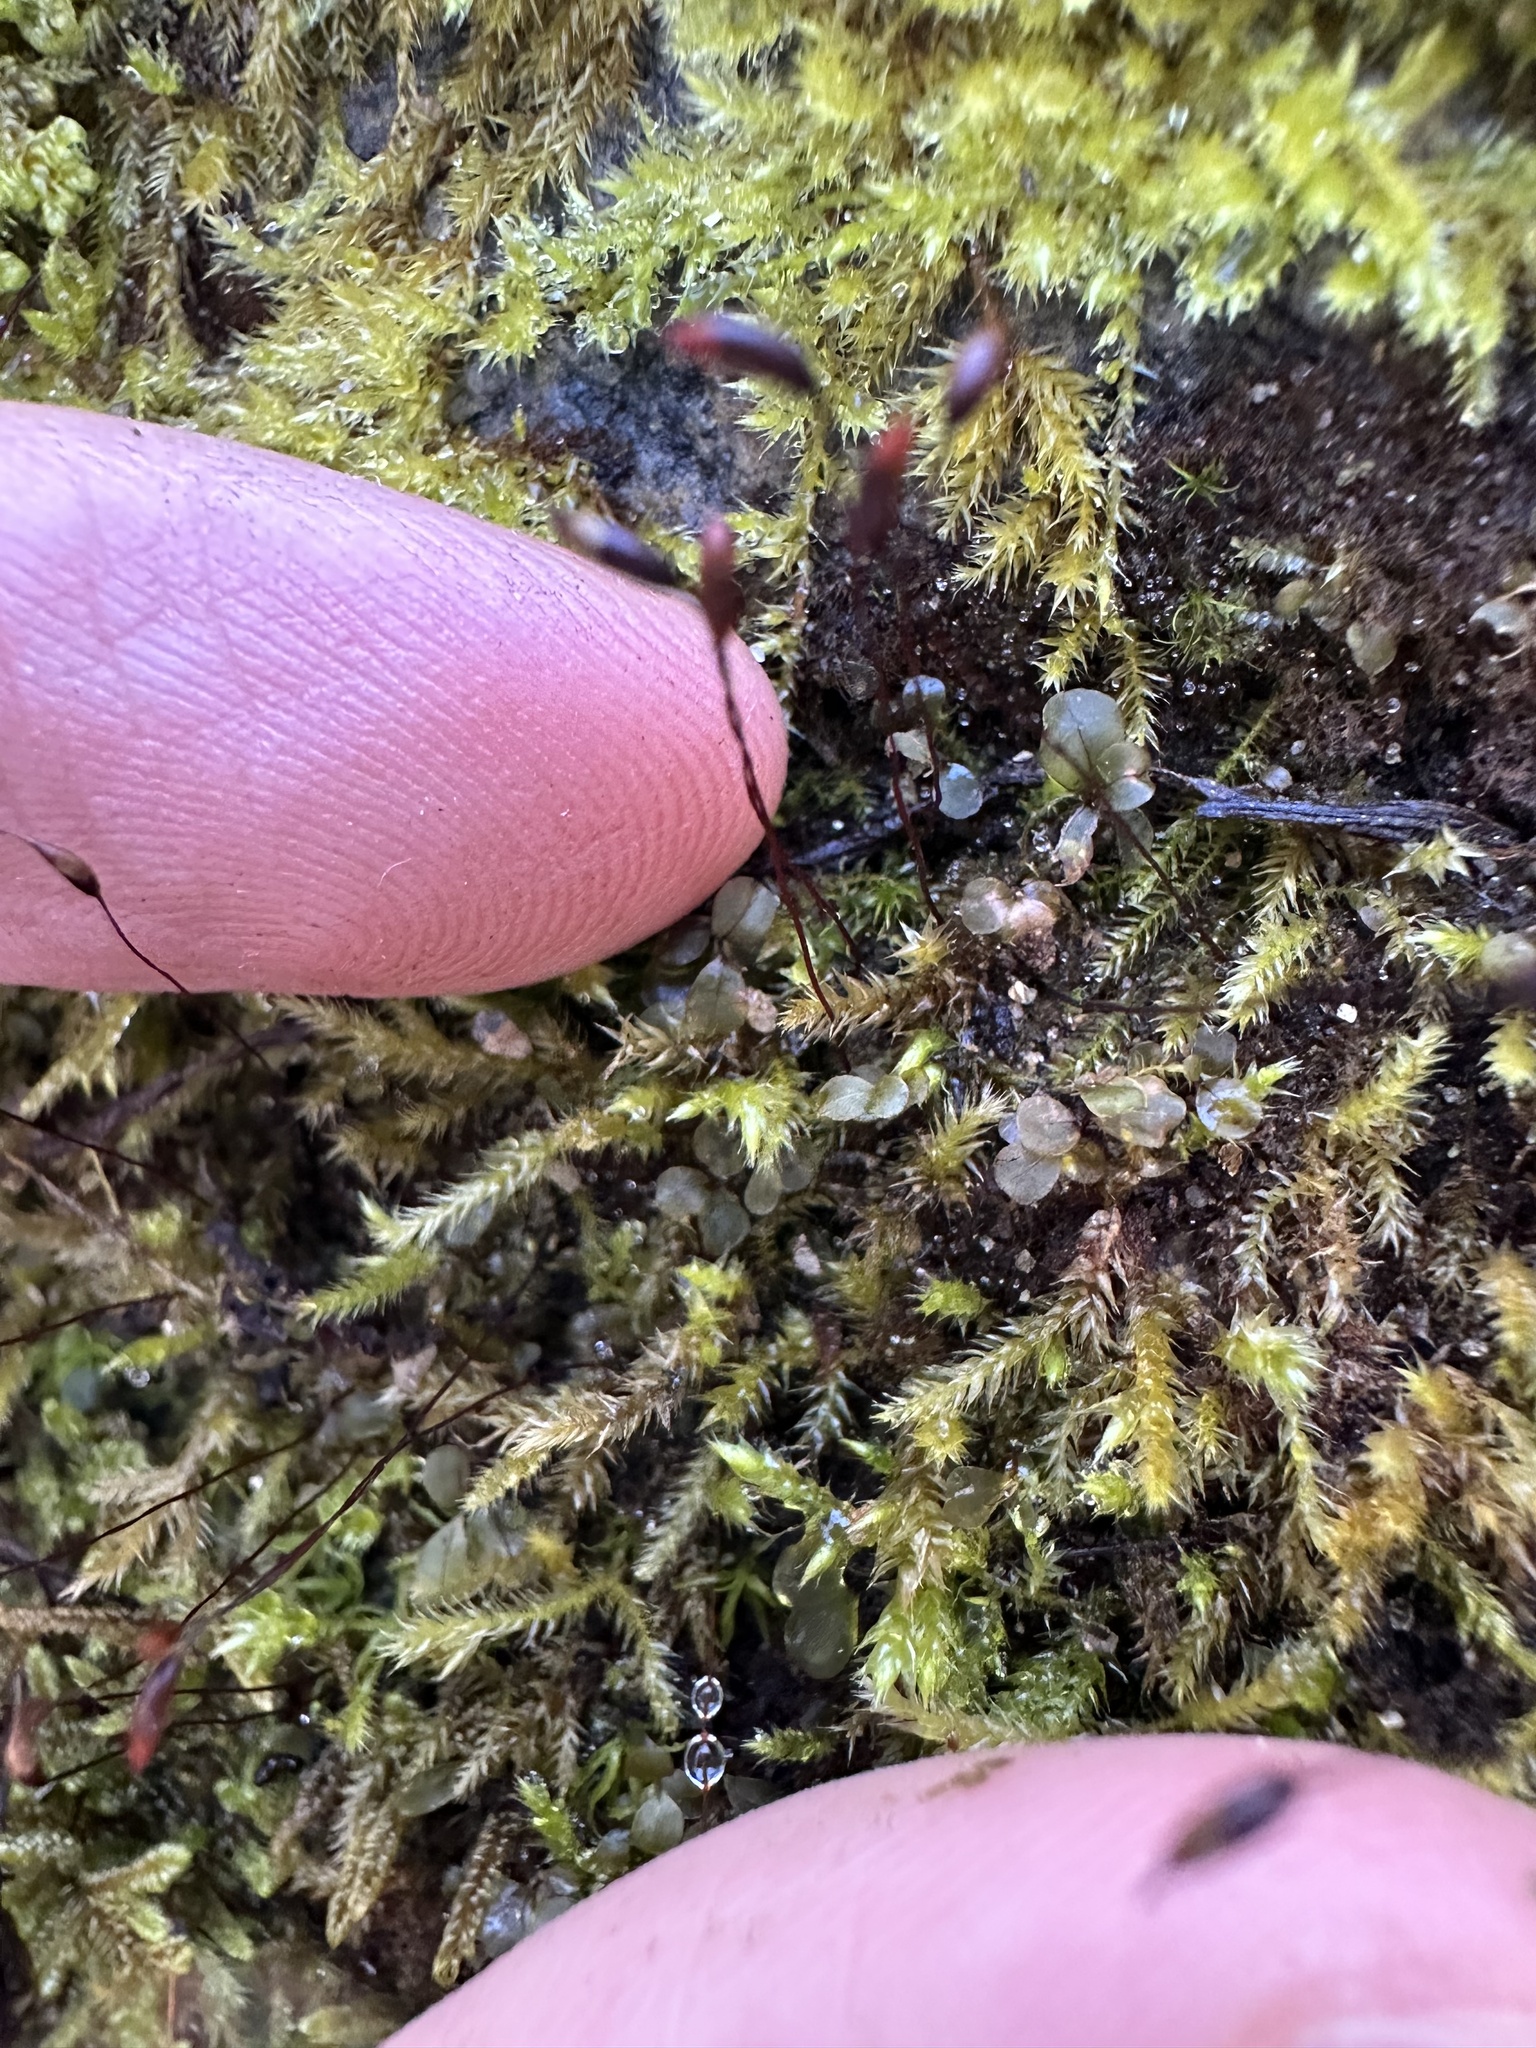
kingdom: Plantae
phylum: Bryophyta
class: Bryopsida
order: Hypnales
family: Brachytheciaceae
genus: Brachytheciastrum
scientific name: Brachytheciastrum velutinum
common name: Velvet feather-moss
